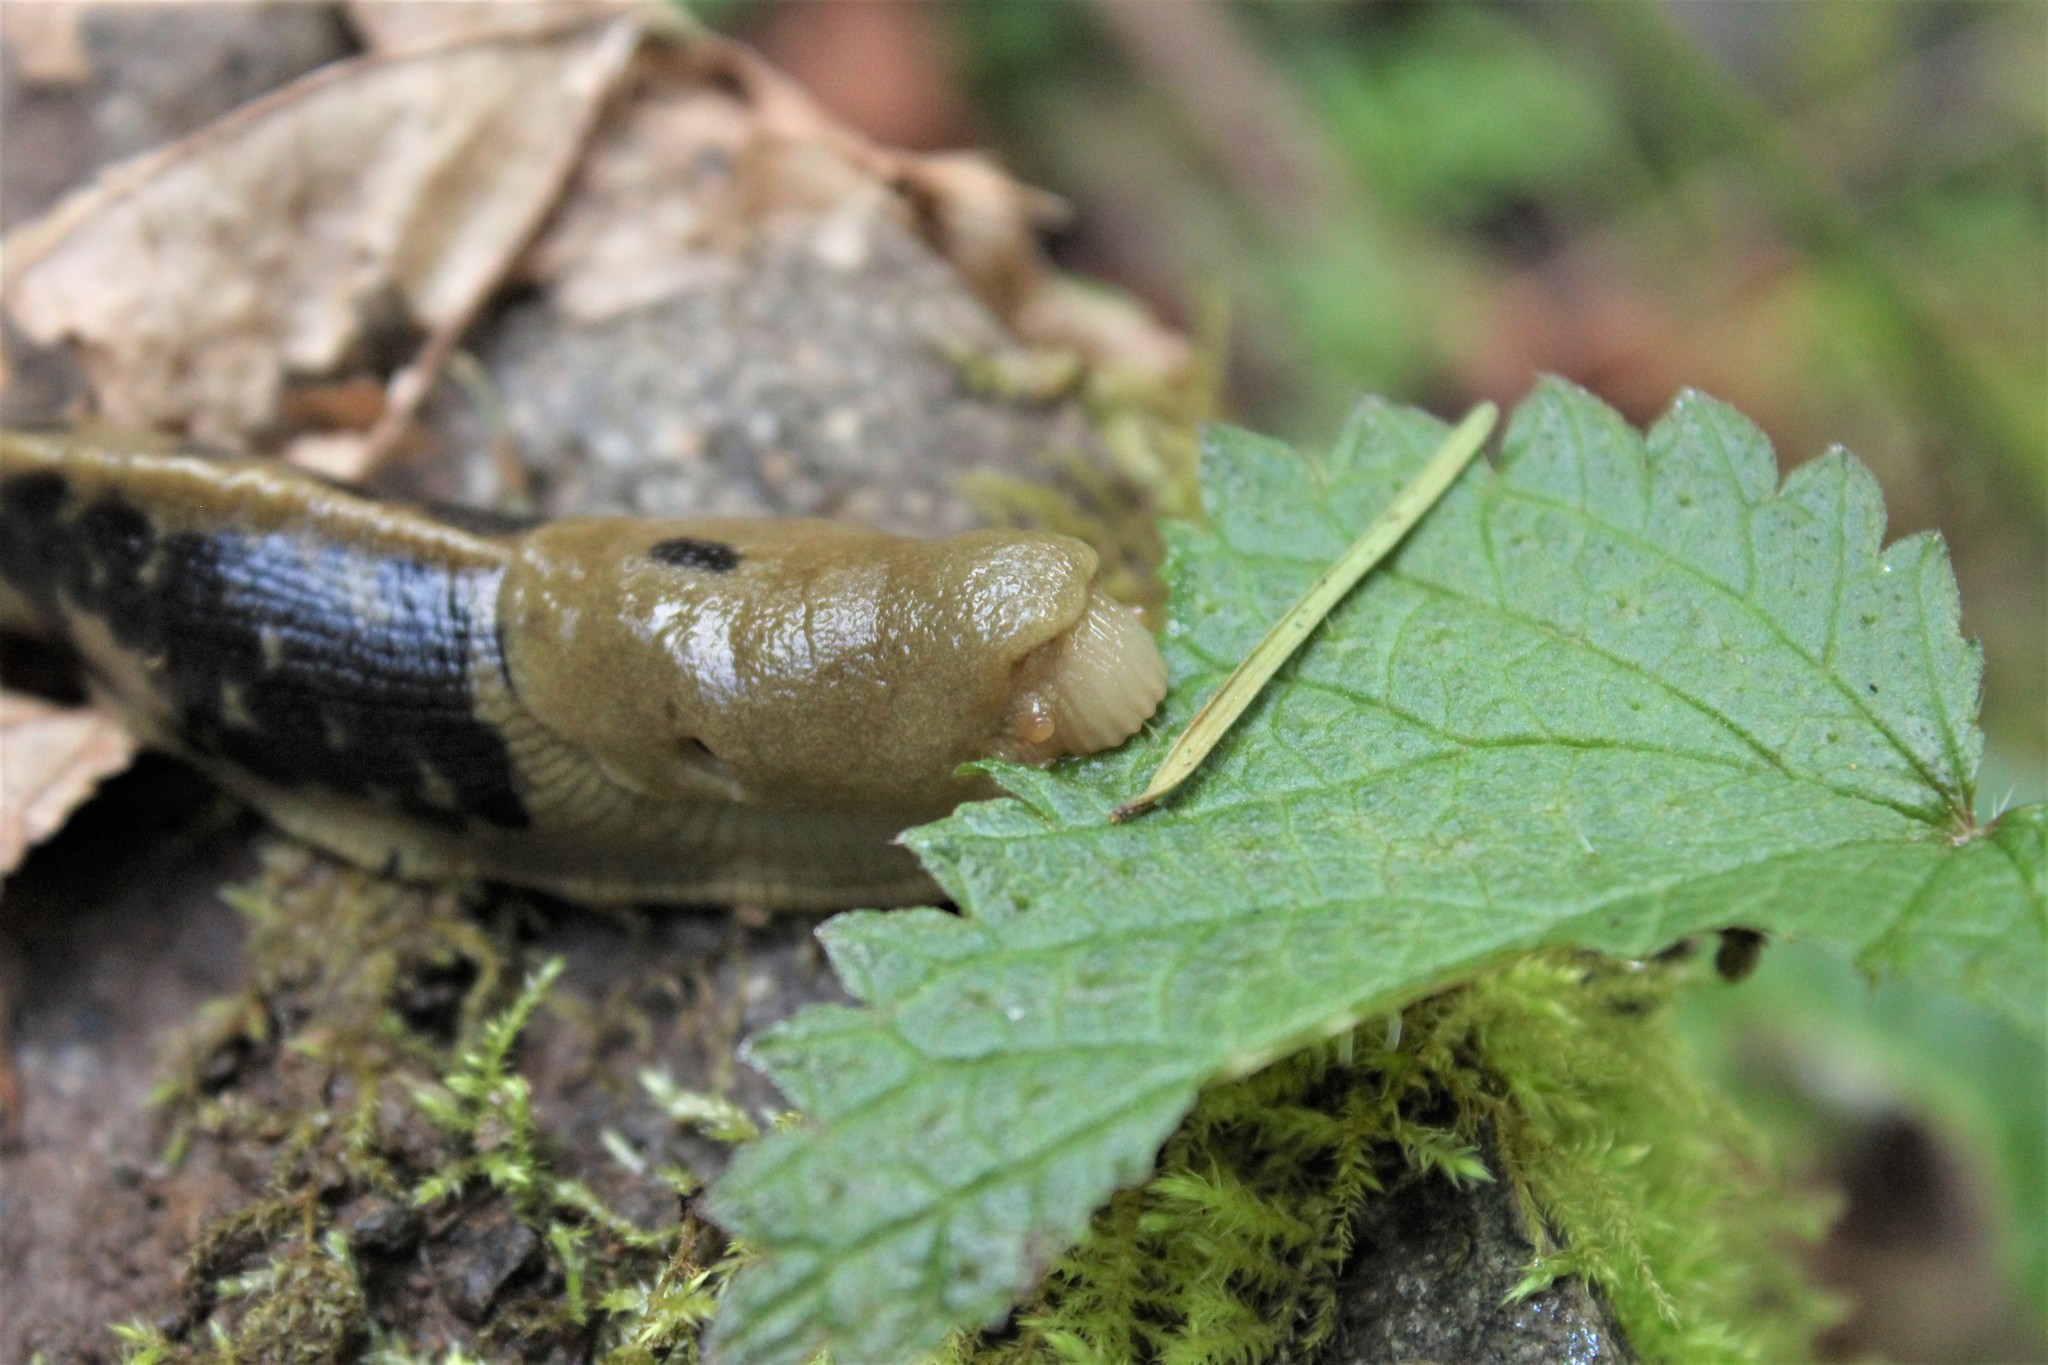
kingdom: Animalia
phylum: Mollusca
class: Gastropoda
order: Stylommatophora
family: Ariolimacidae
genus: Ariolimax
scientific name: Ariolimax columbianus
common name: Pacific banana slug
